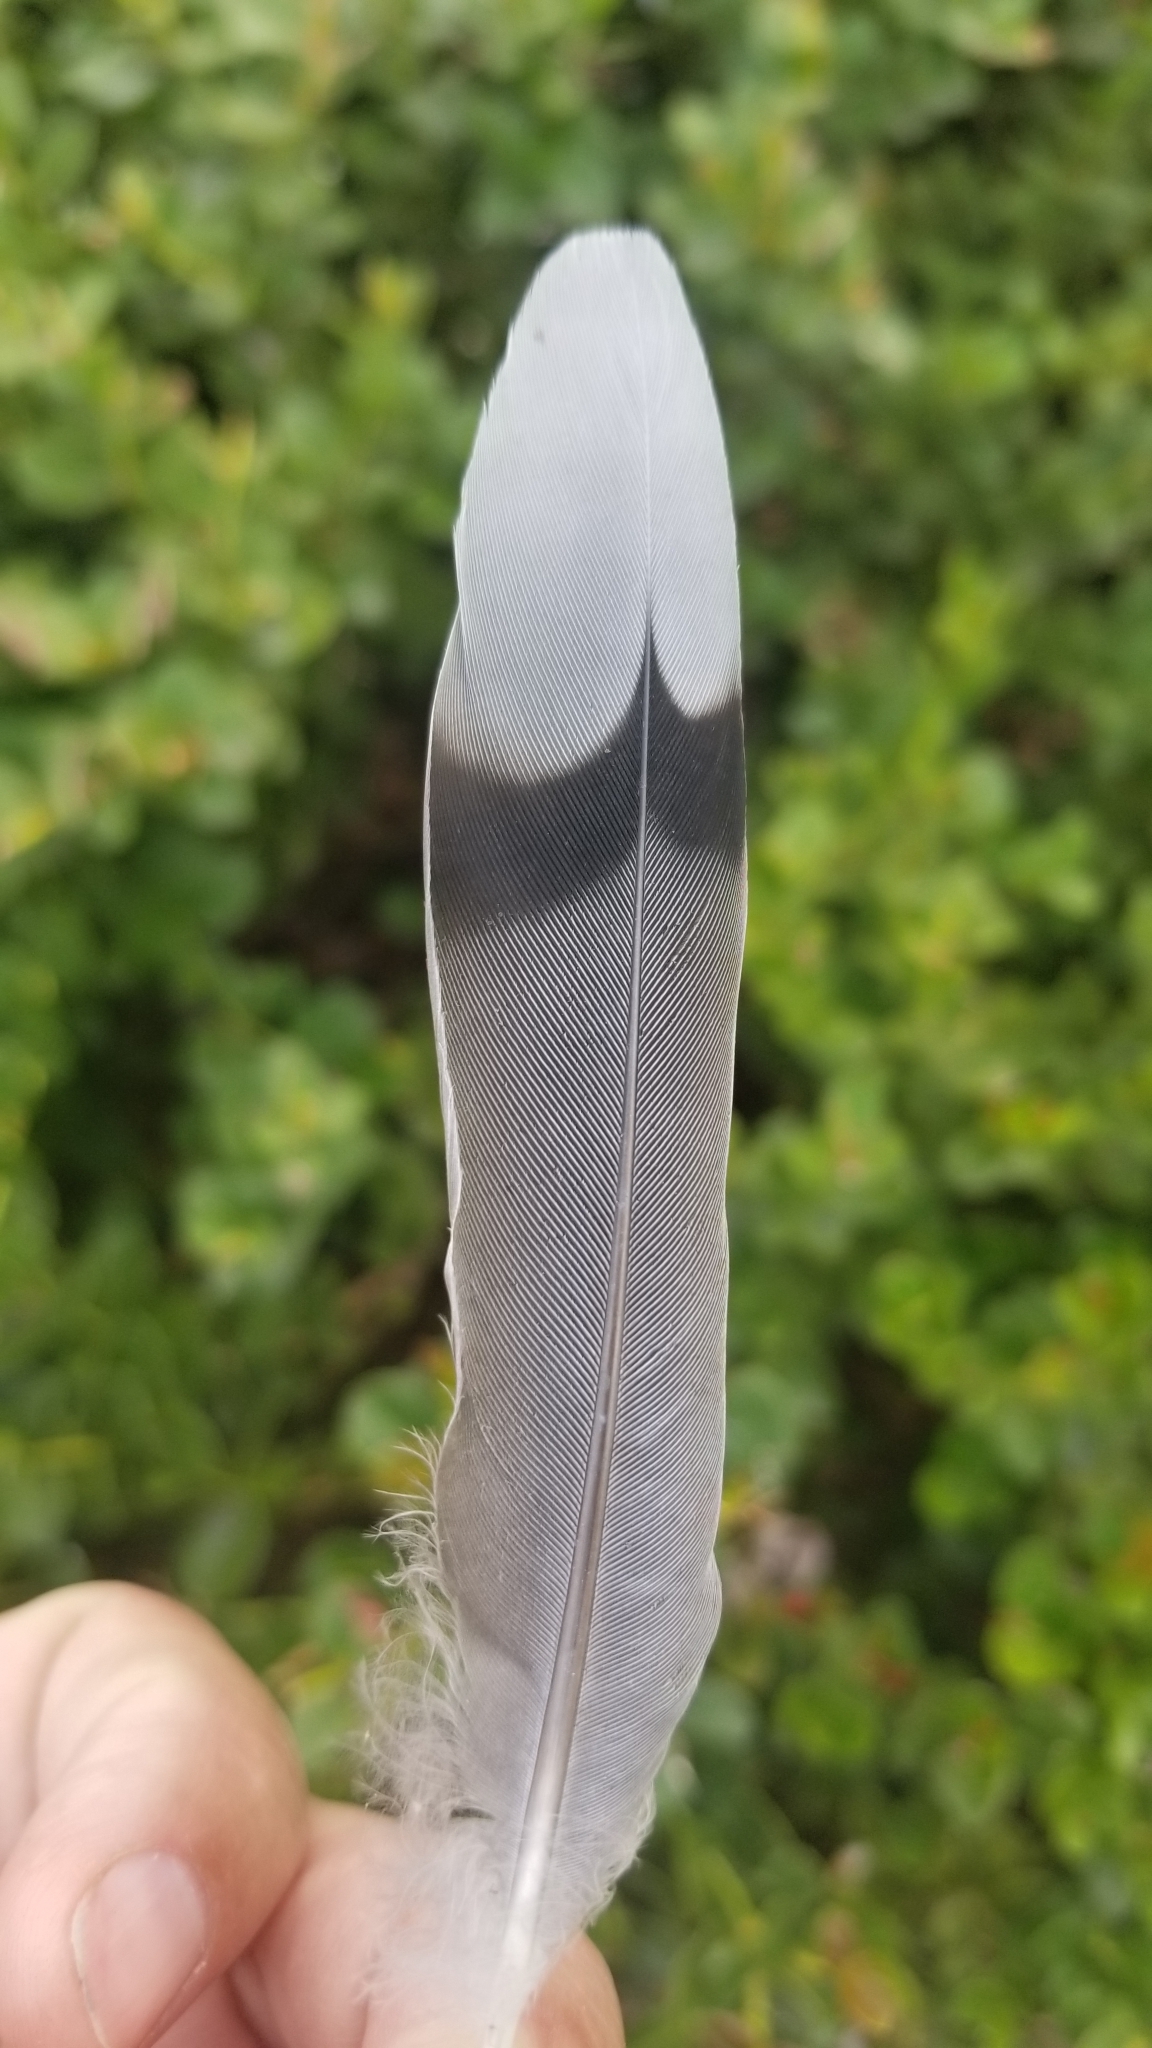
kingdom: Animalia
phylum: Chordata
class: Aves
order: Columbiformes
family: Columbidae
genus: Zenaida
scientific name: Zenaida macroura
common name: Mourning dove
